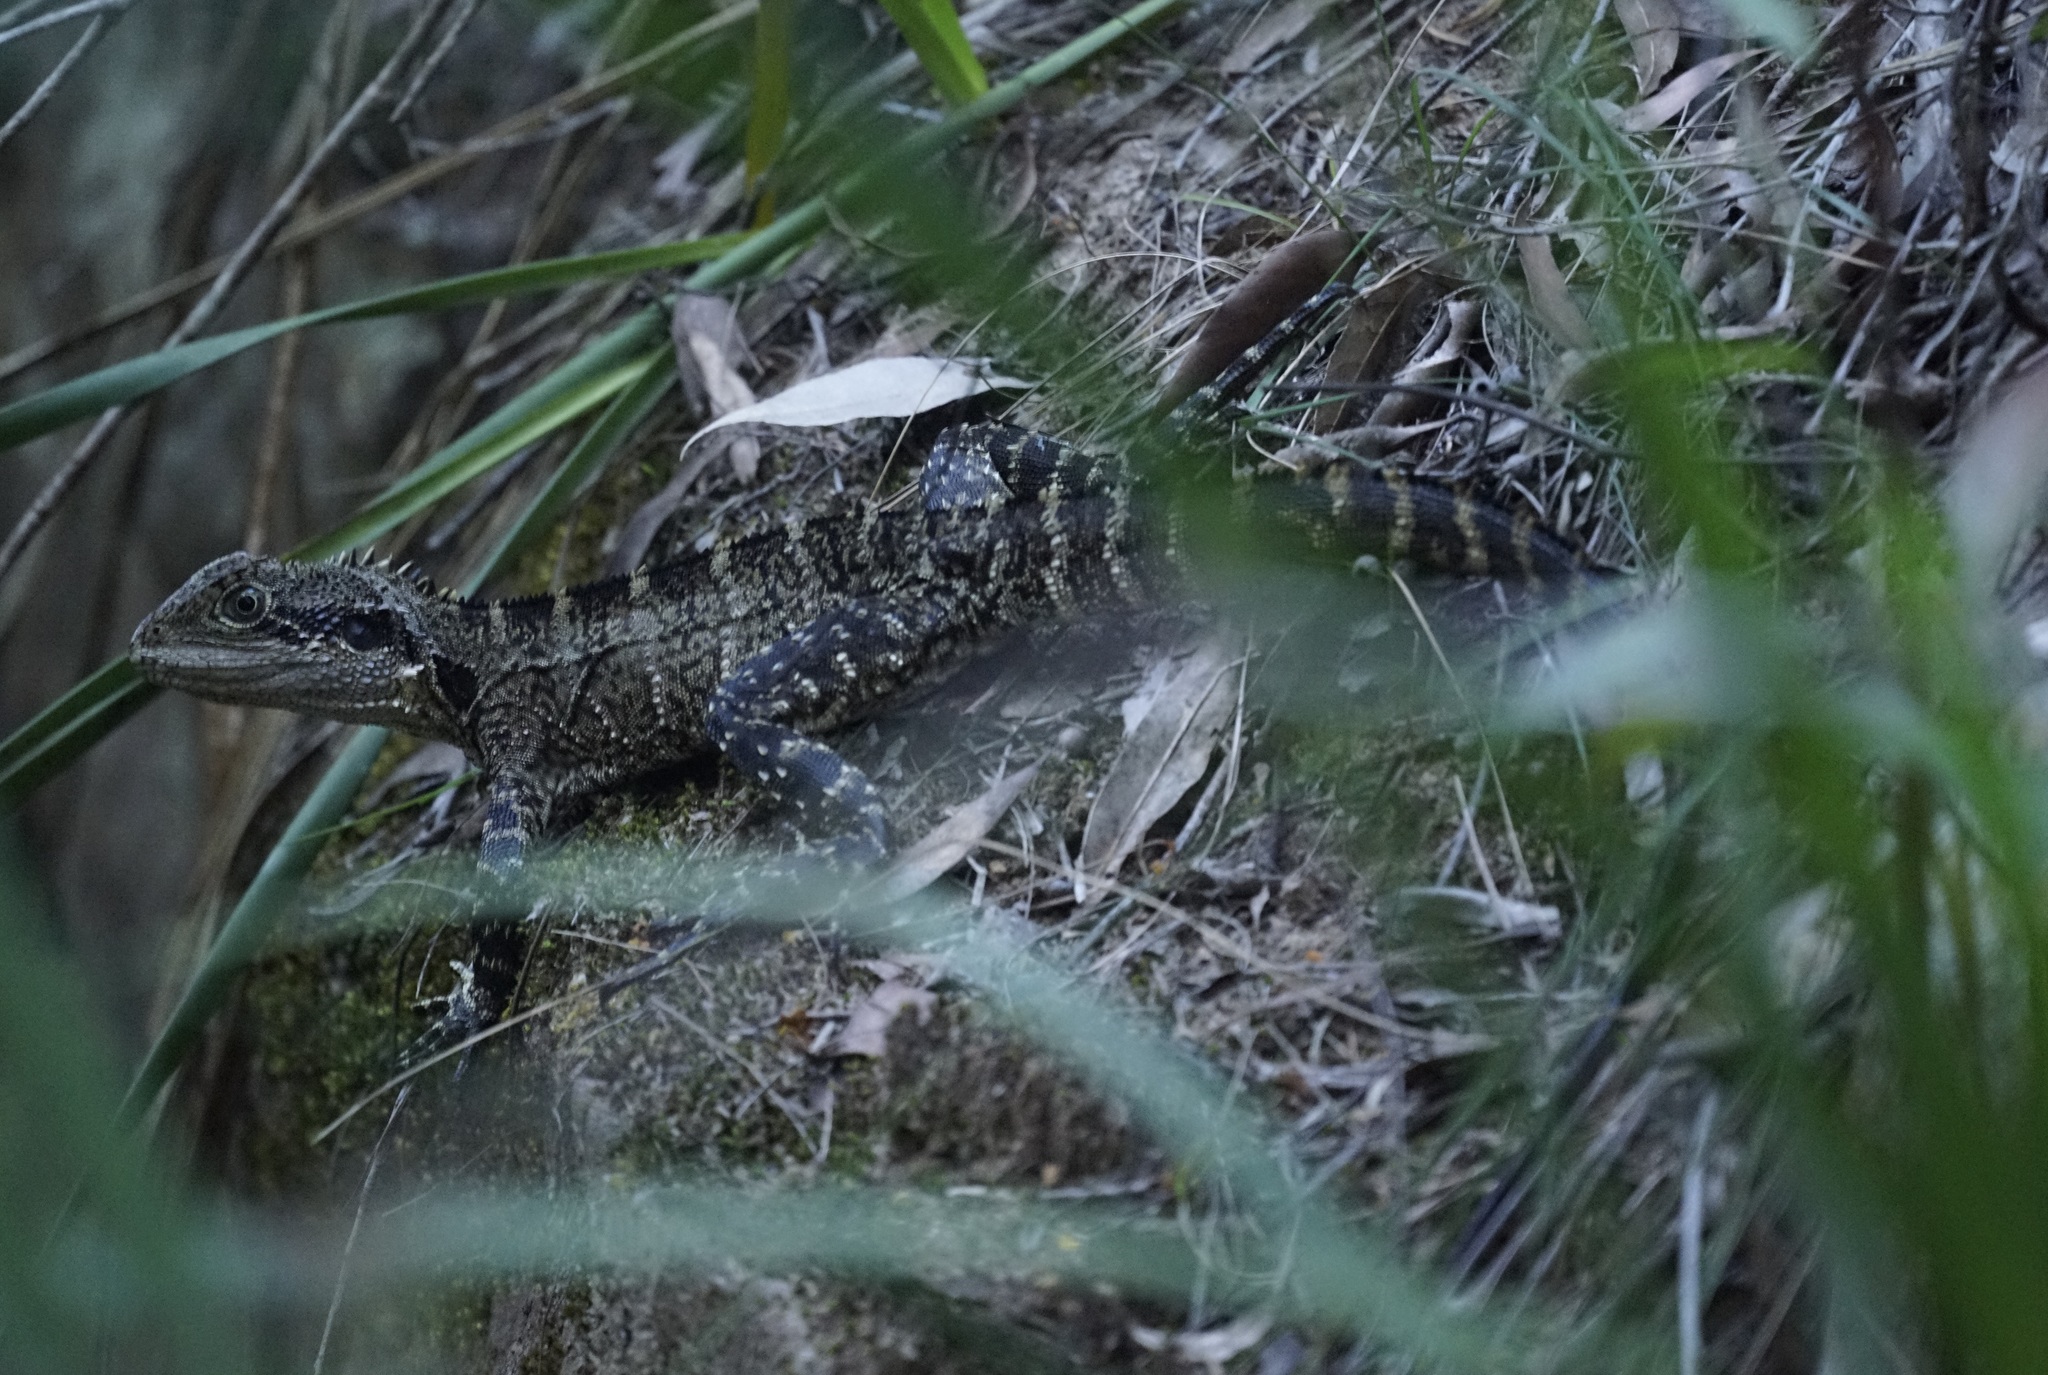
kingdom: Animalia
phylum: Chordata
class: Squamata
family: Agamidae
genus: Intellagama
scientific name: Intellagama lesueurii
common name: Eastern water dragon
